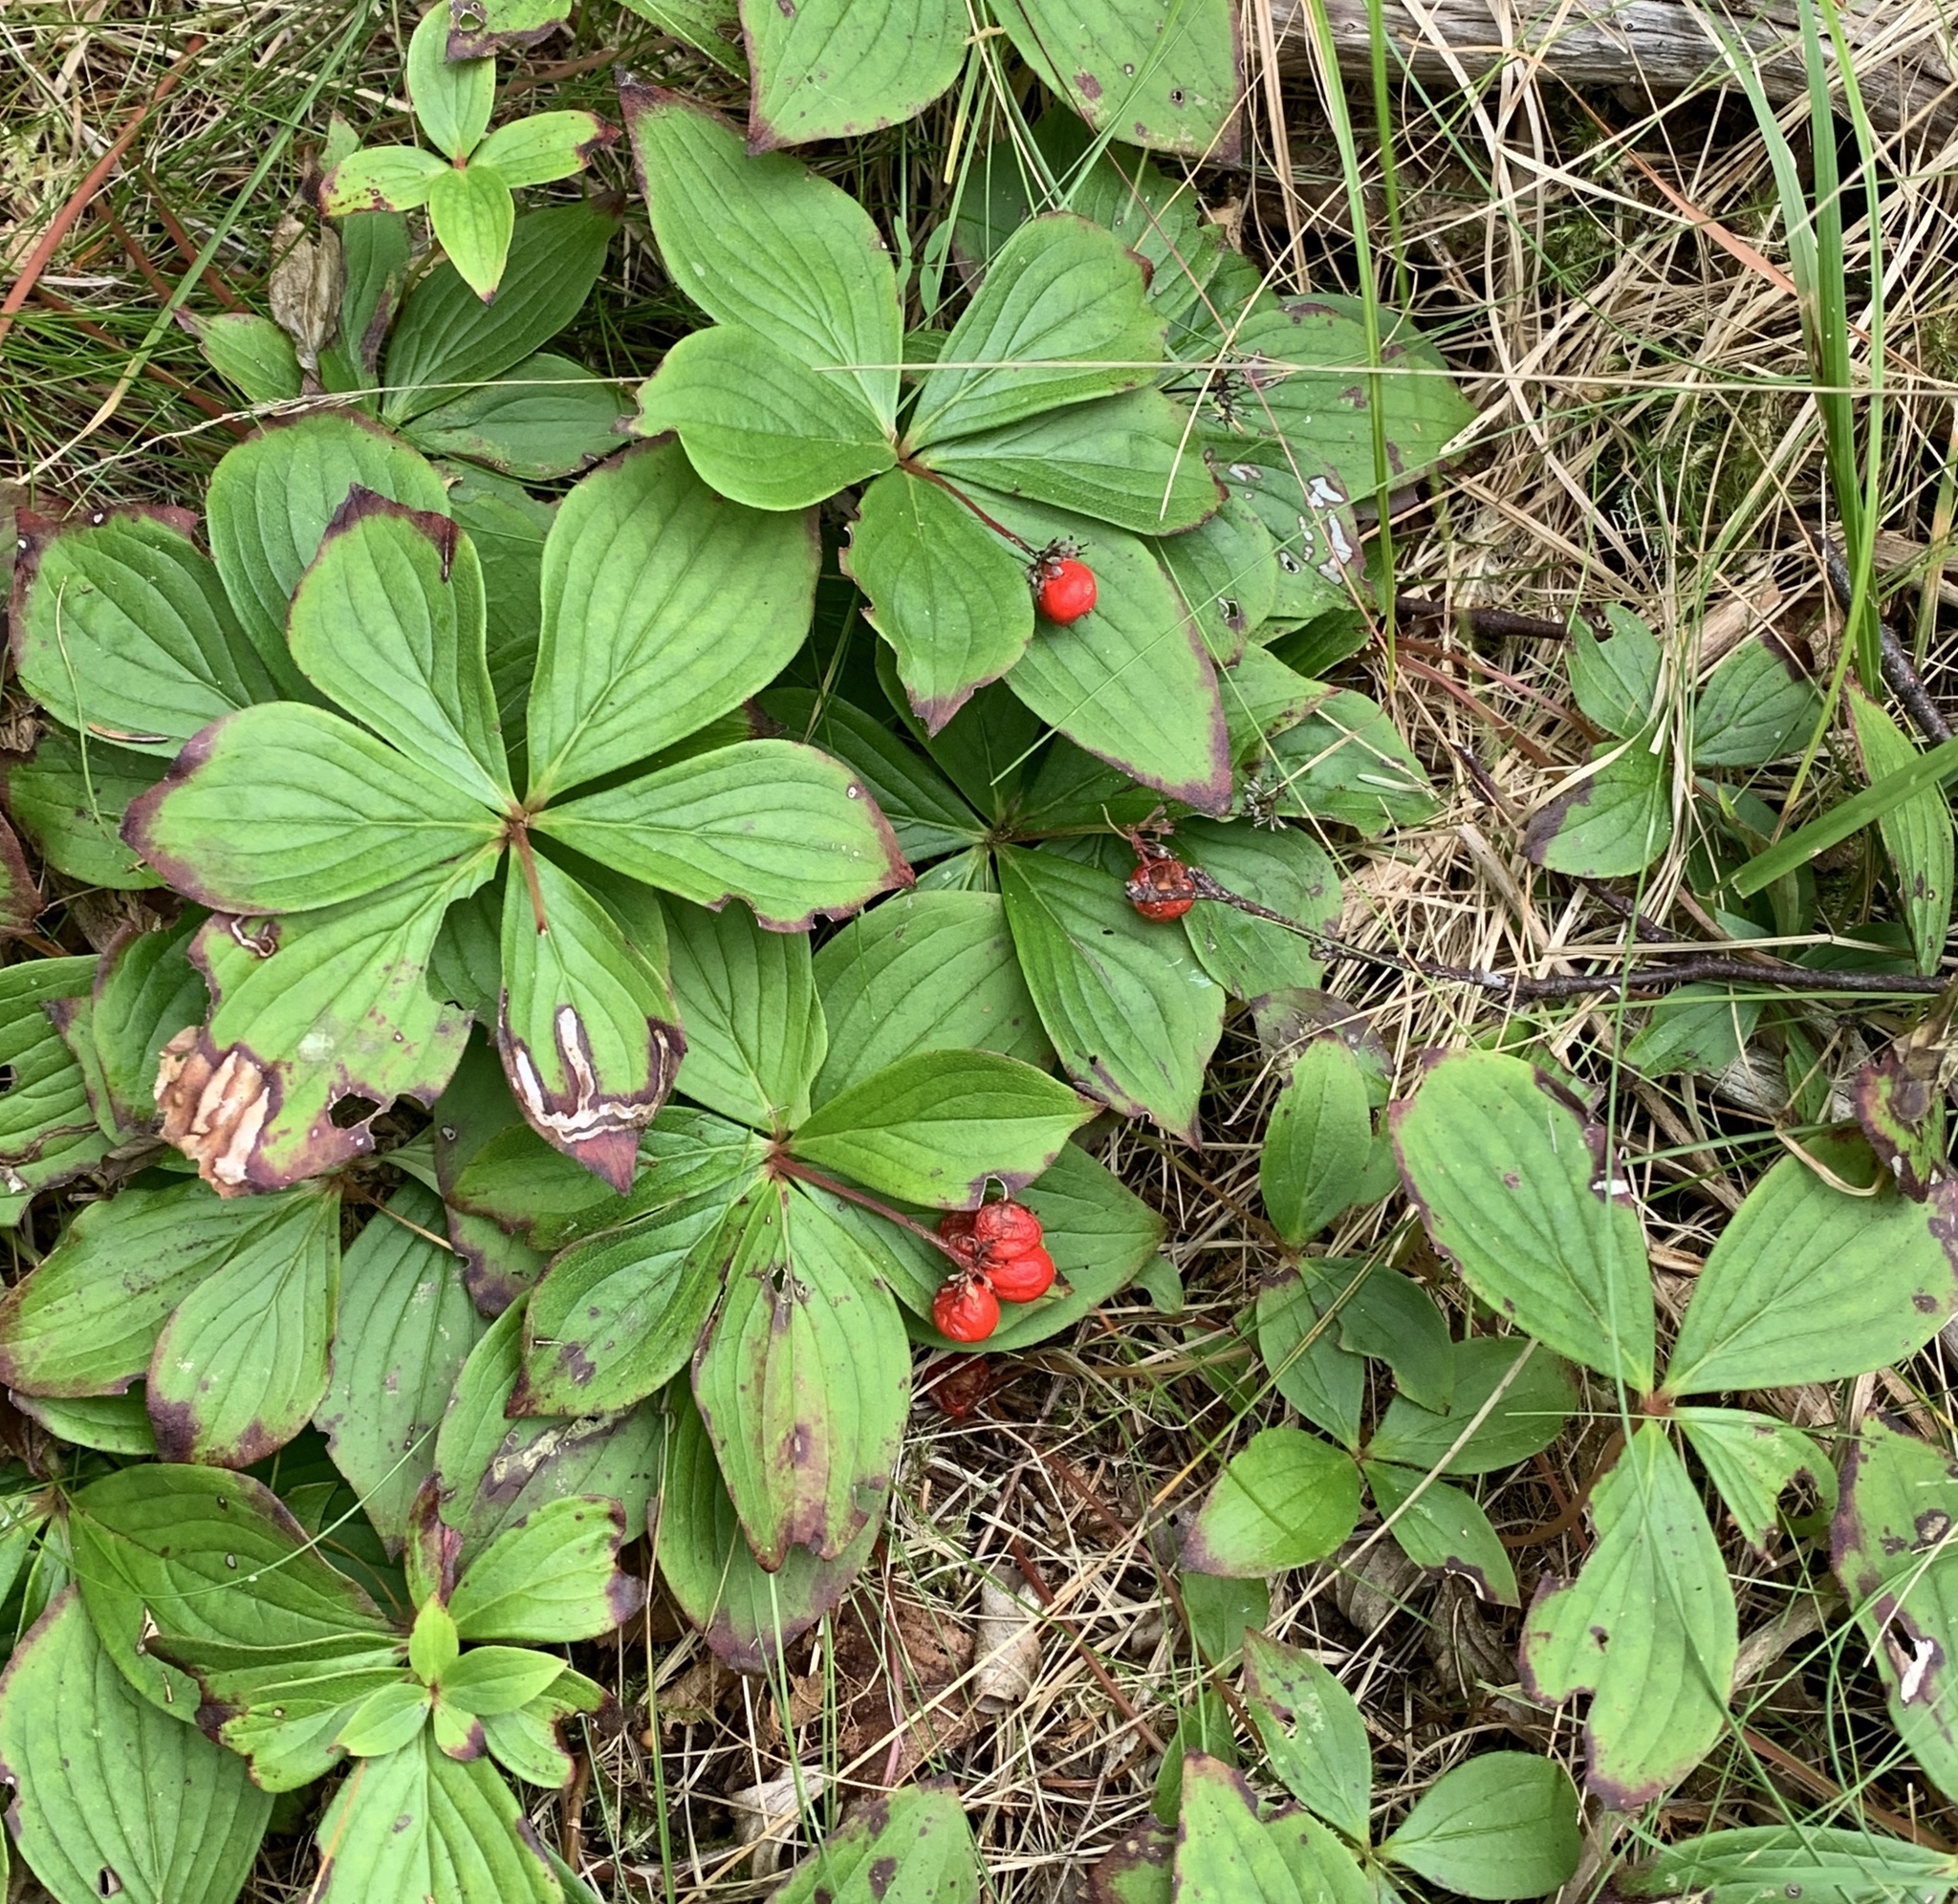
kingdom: Plantae
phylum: Tracheophyta
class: Magnoliopsida
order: Cornales
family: Cornaceae
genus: Cornus
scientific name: Cornus canadensis
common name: Creeping dogwood
